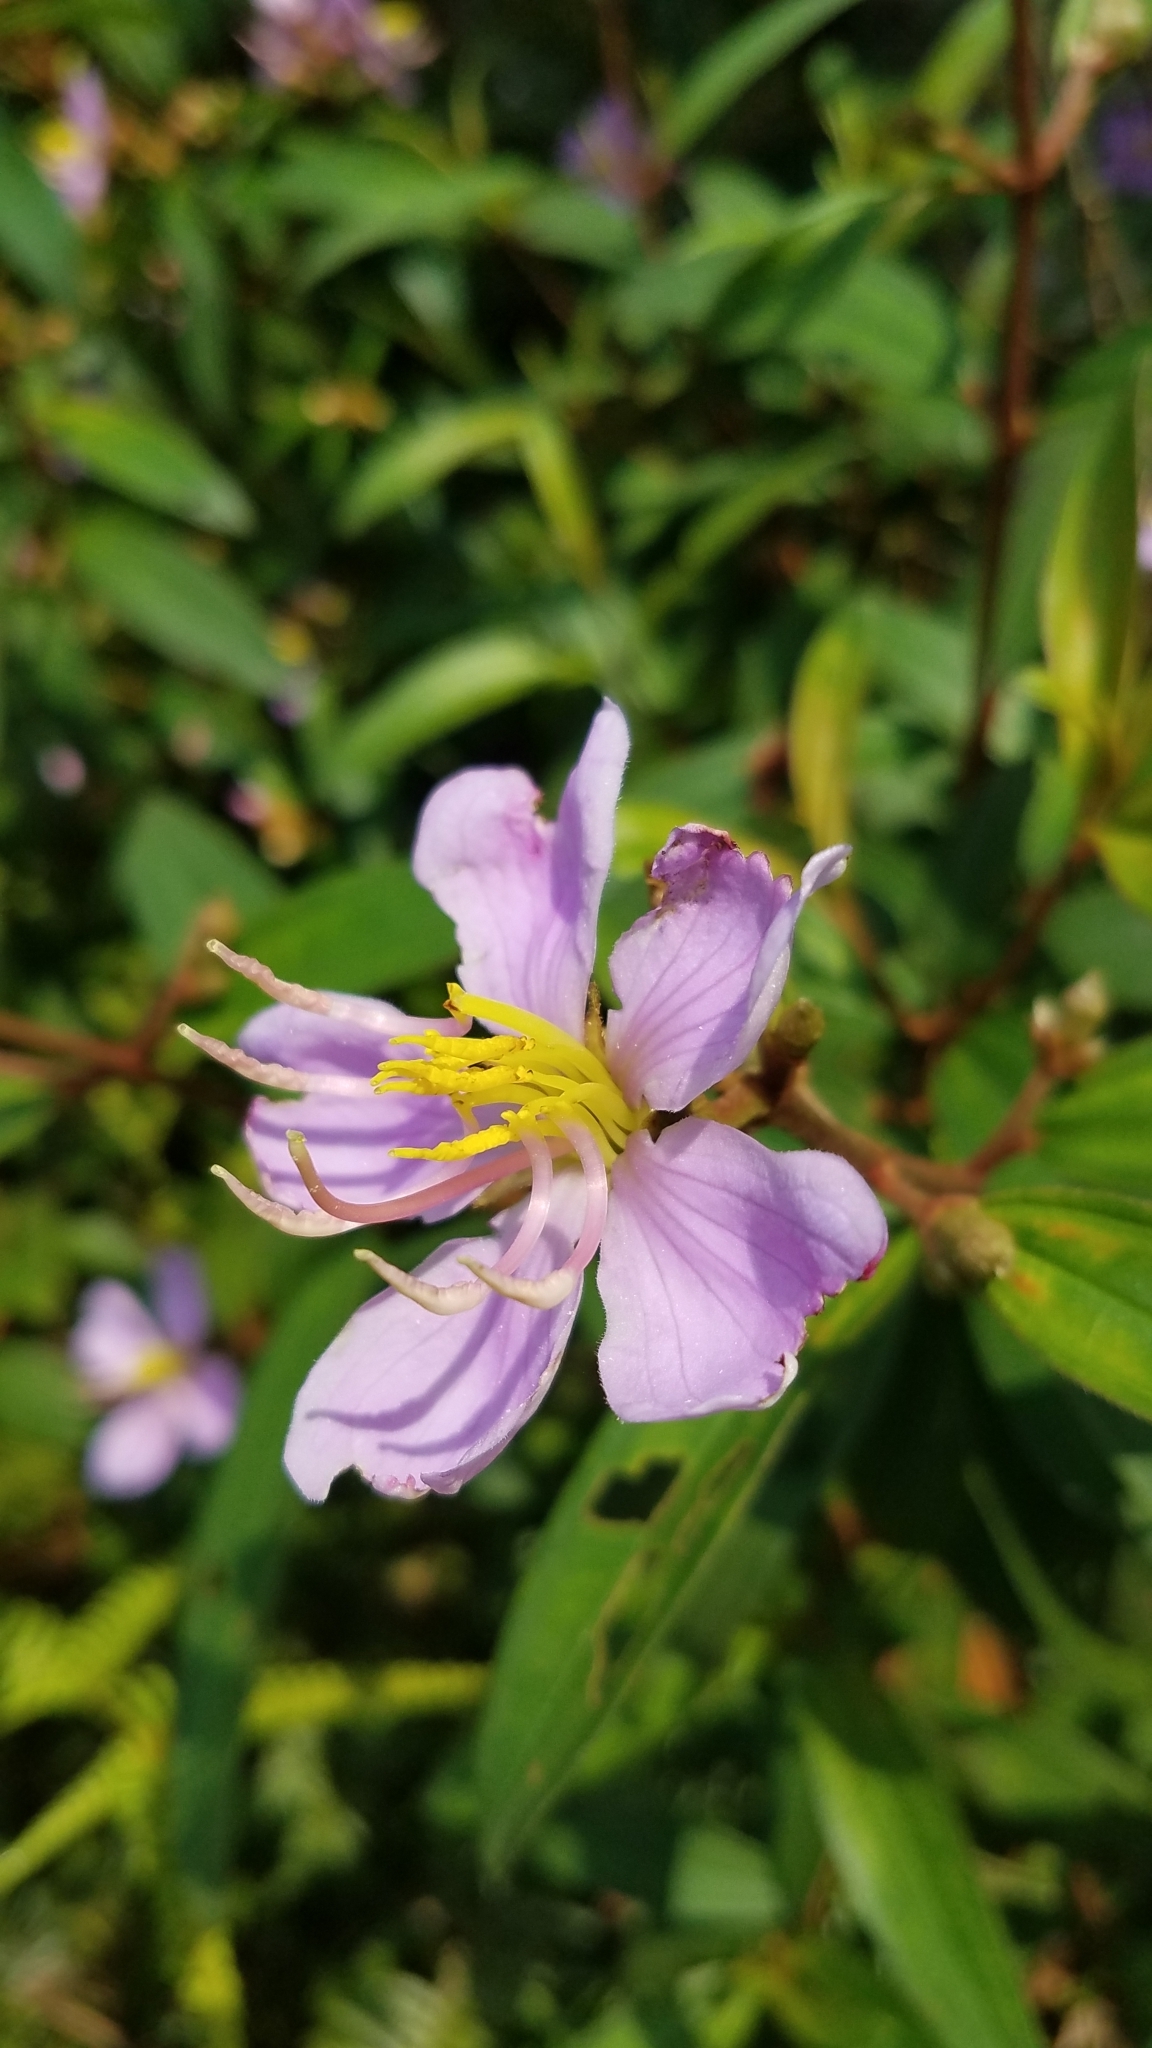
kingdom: Plantae
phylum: Tracheophyta
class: Magnoliopsida
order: Myrtales
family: Melastomataceae
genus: Melastoma
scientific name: Melastoma malabathricum
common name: Indian-rhododendron
